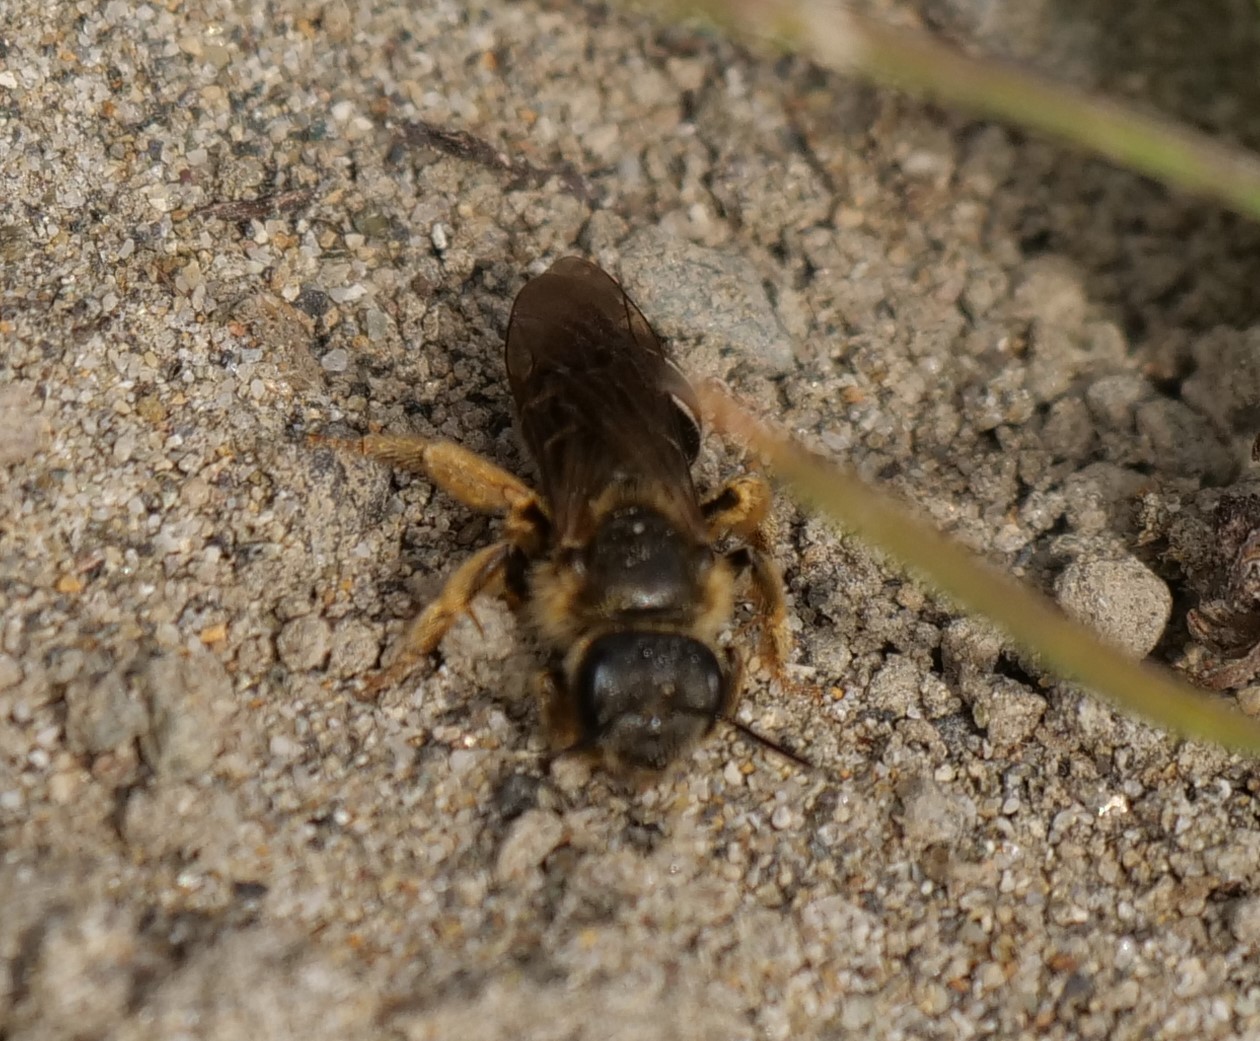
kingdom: Animalia
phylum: Arthropoda
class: Insecta
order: Hymenoptera
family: Halictidae
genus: Halictus
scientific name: Halictus rubicundus
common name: Orange-legged furrow bee
